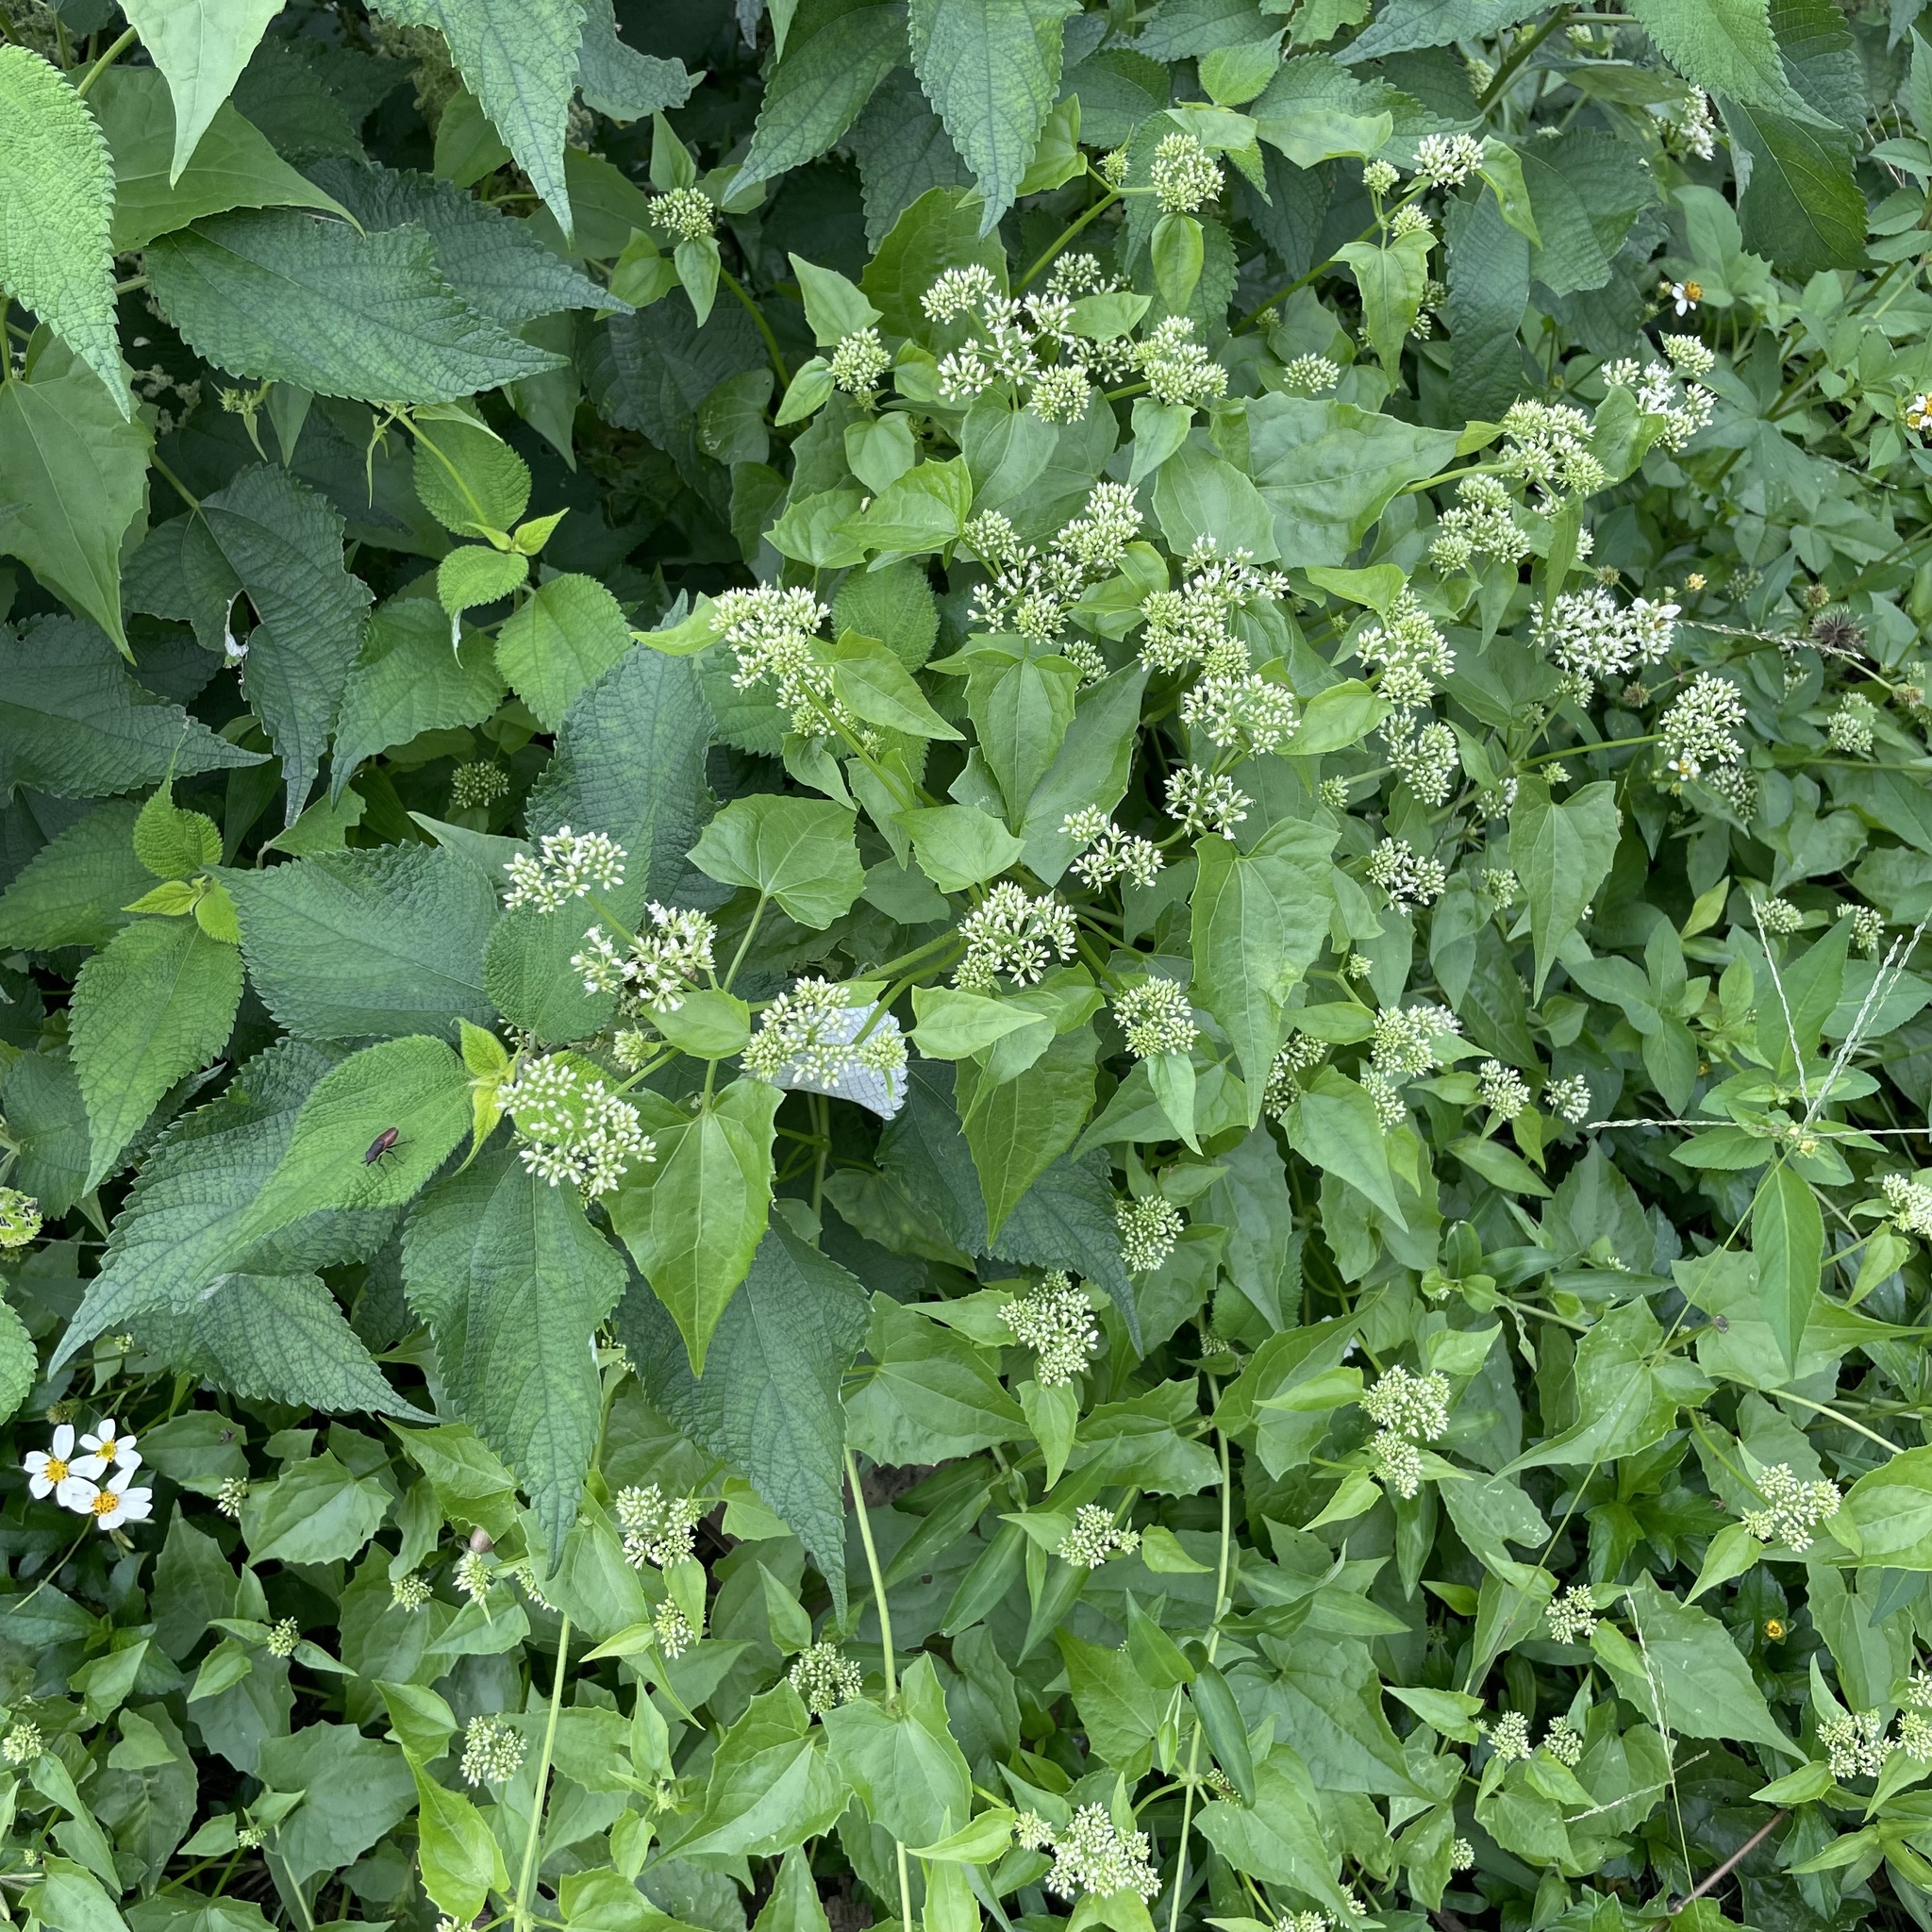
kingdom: Plantae
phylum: Tracheophyta
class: Magnoliopsida
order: Asterales
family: Asteraceae
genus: Mikania
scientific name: Mikania micrantha
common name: Mile-a-minute
